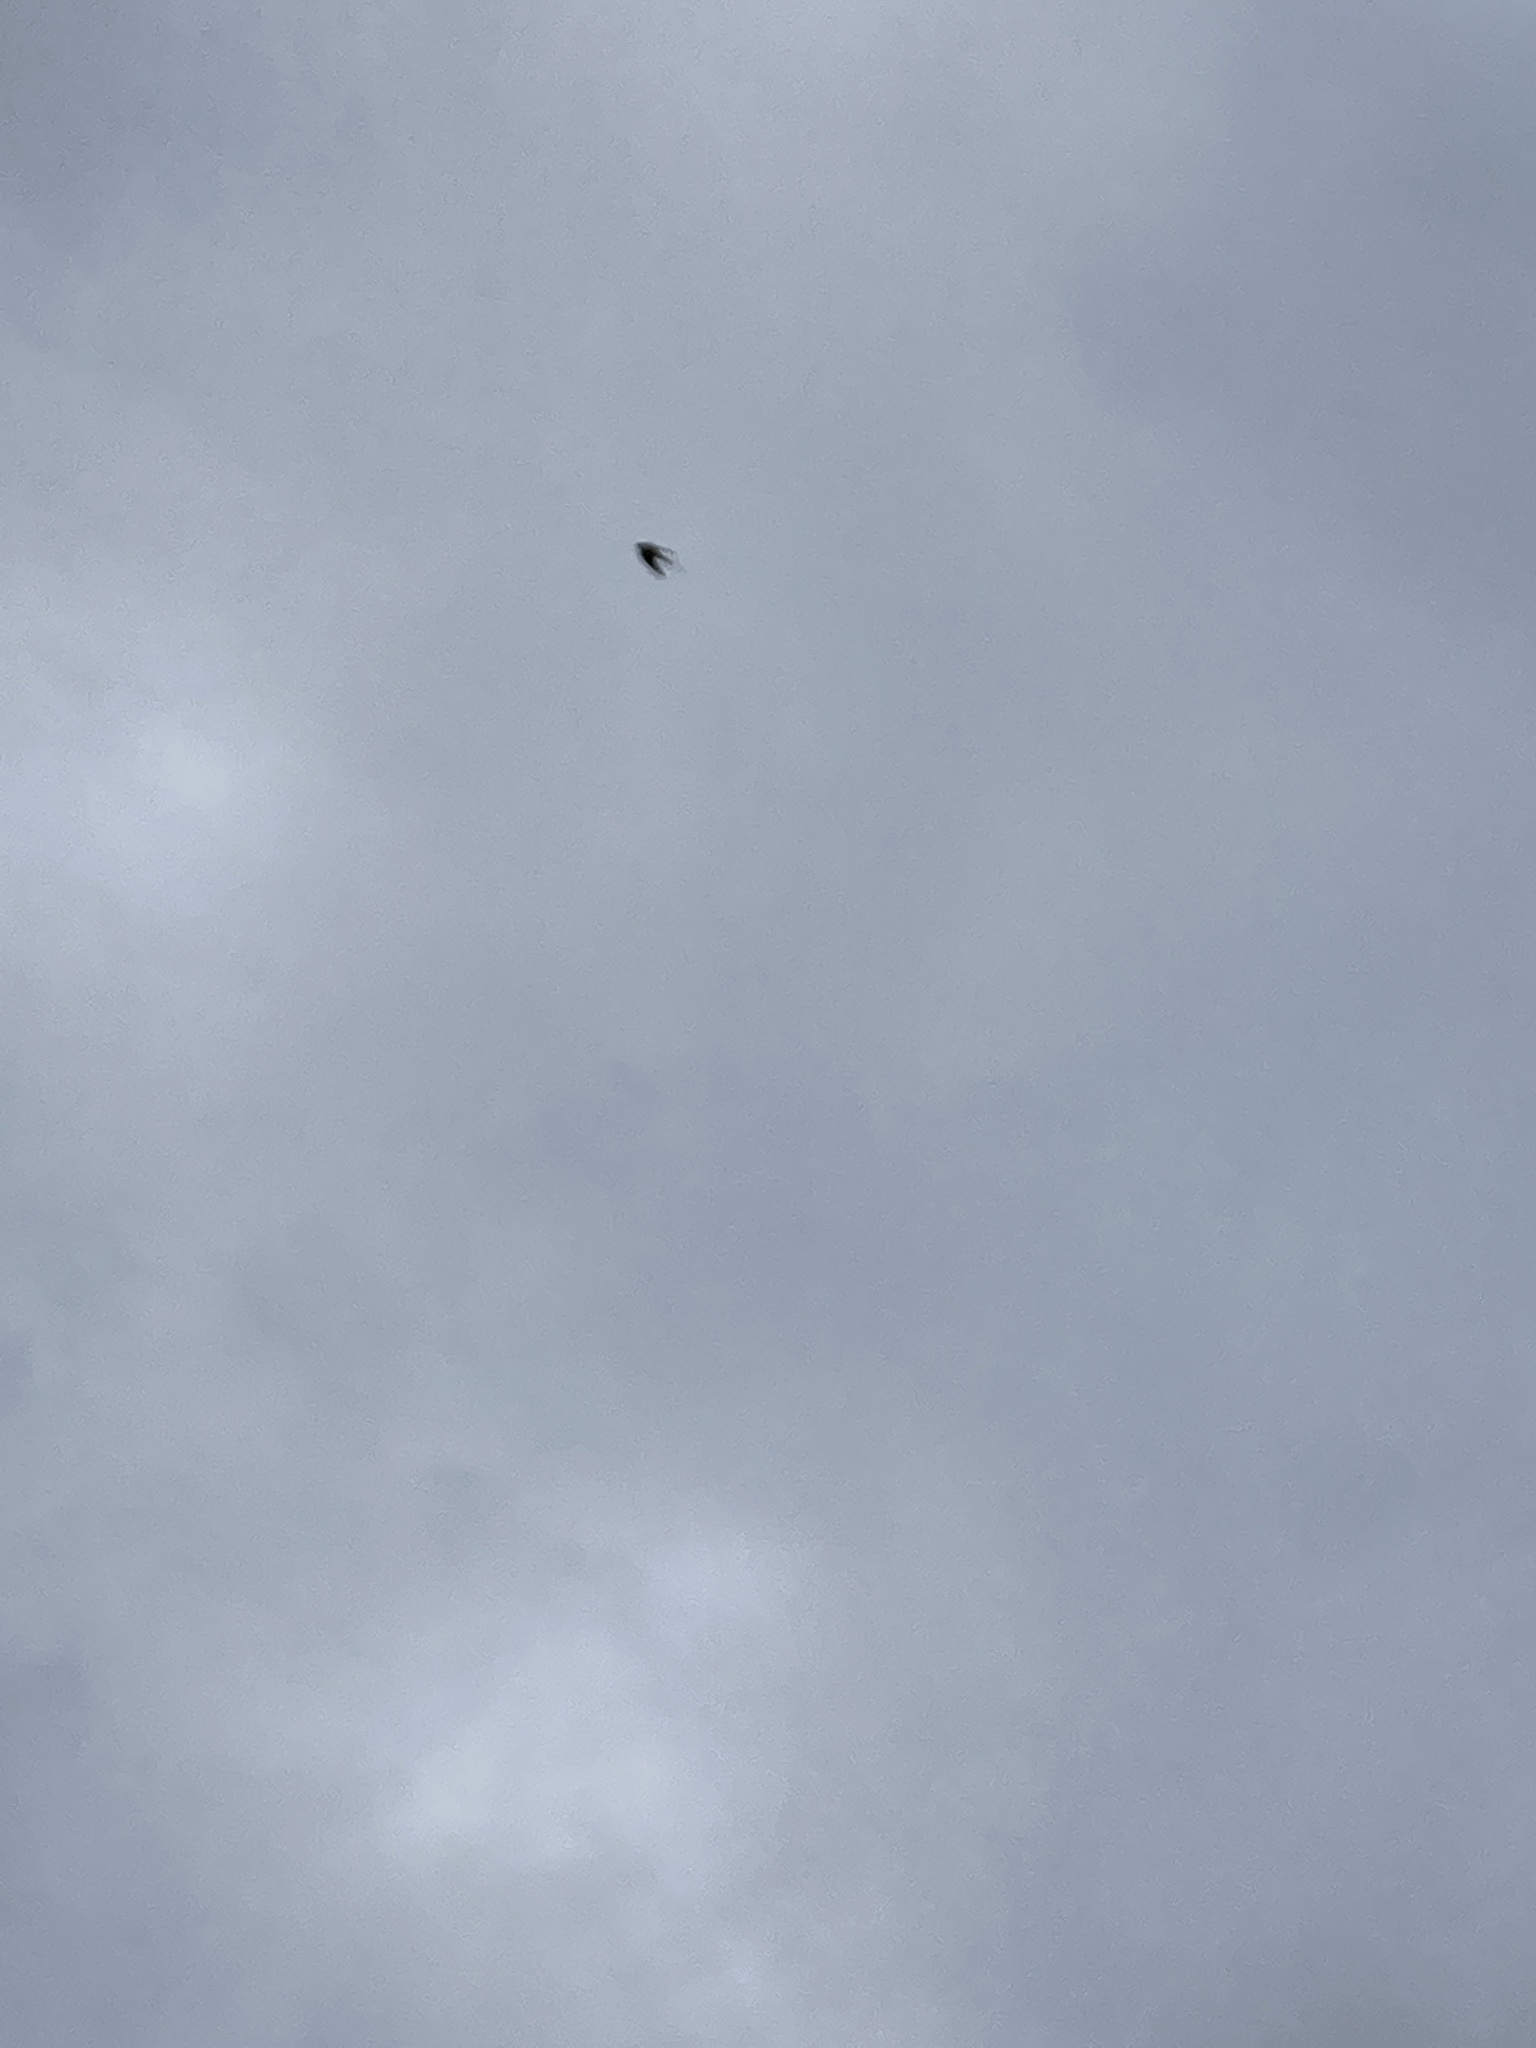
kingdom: Animalia
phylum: Chordata
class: Aves
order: Passeriformes
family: Hirundinidae
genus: Hirundo
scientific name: Hirundo rustica
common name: Barn swallow
